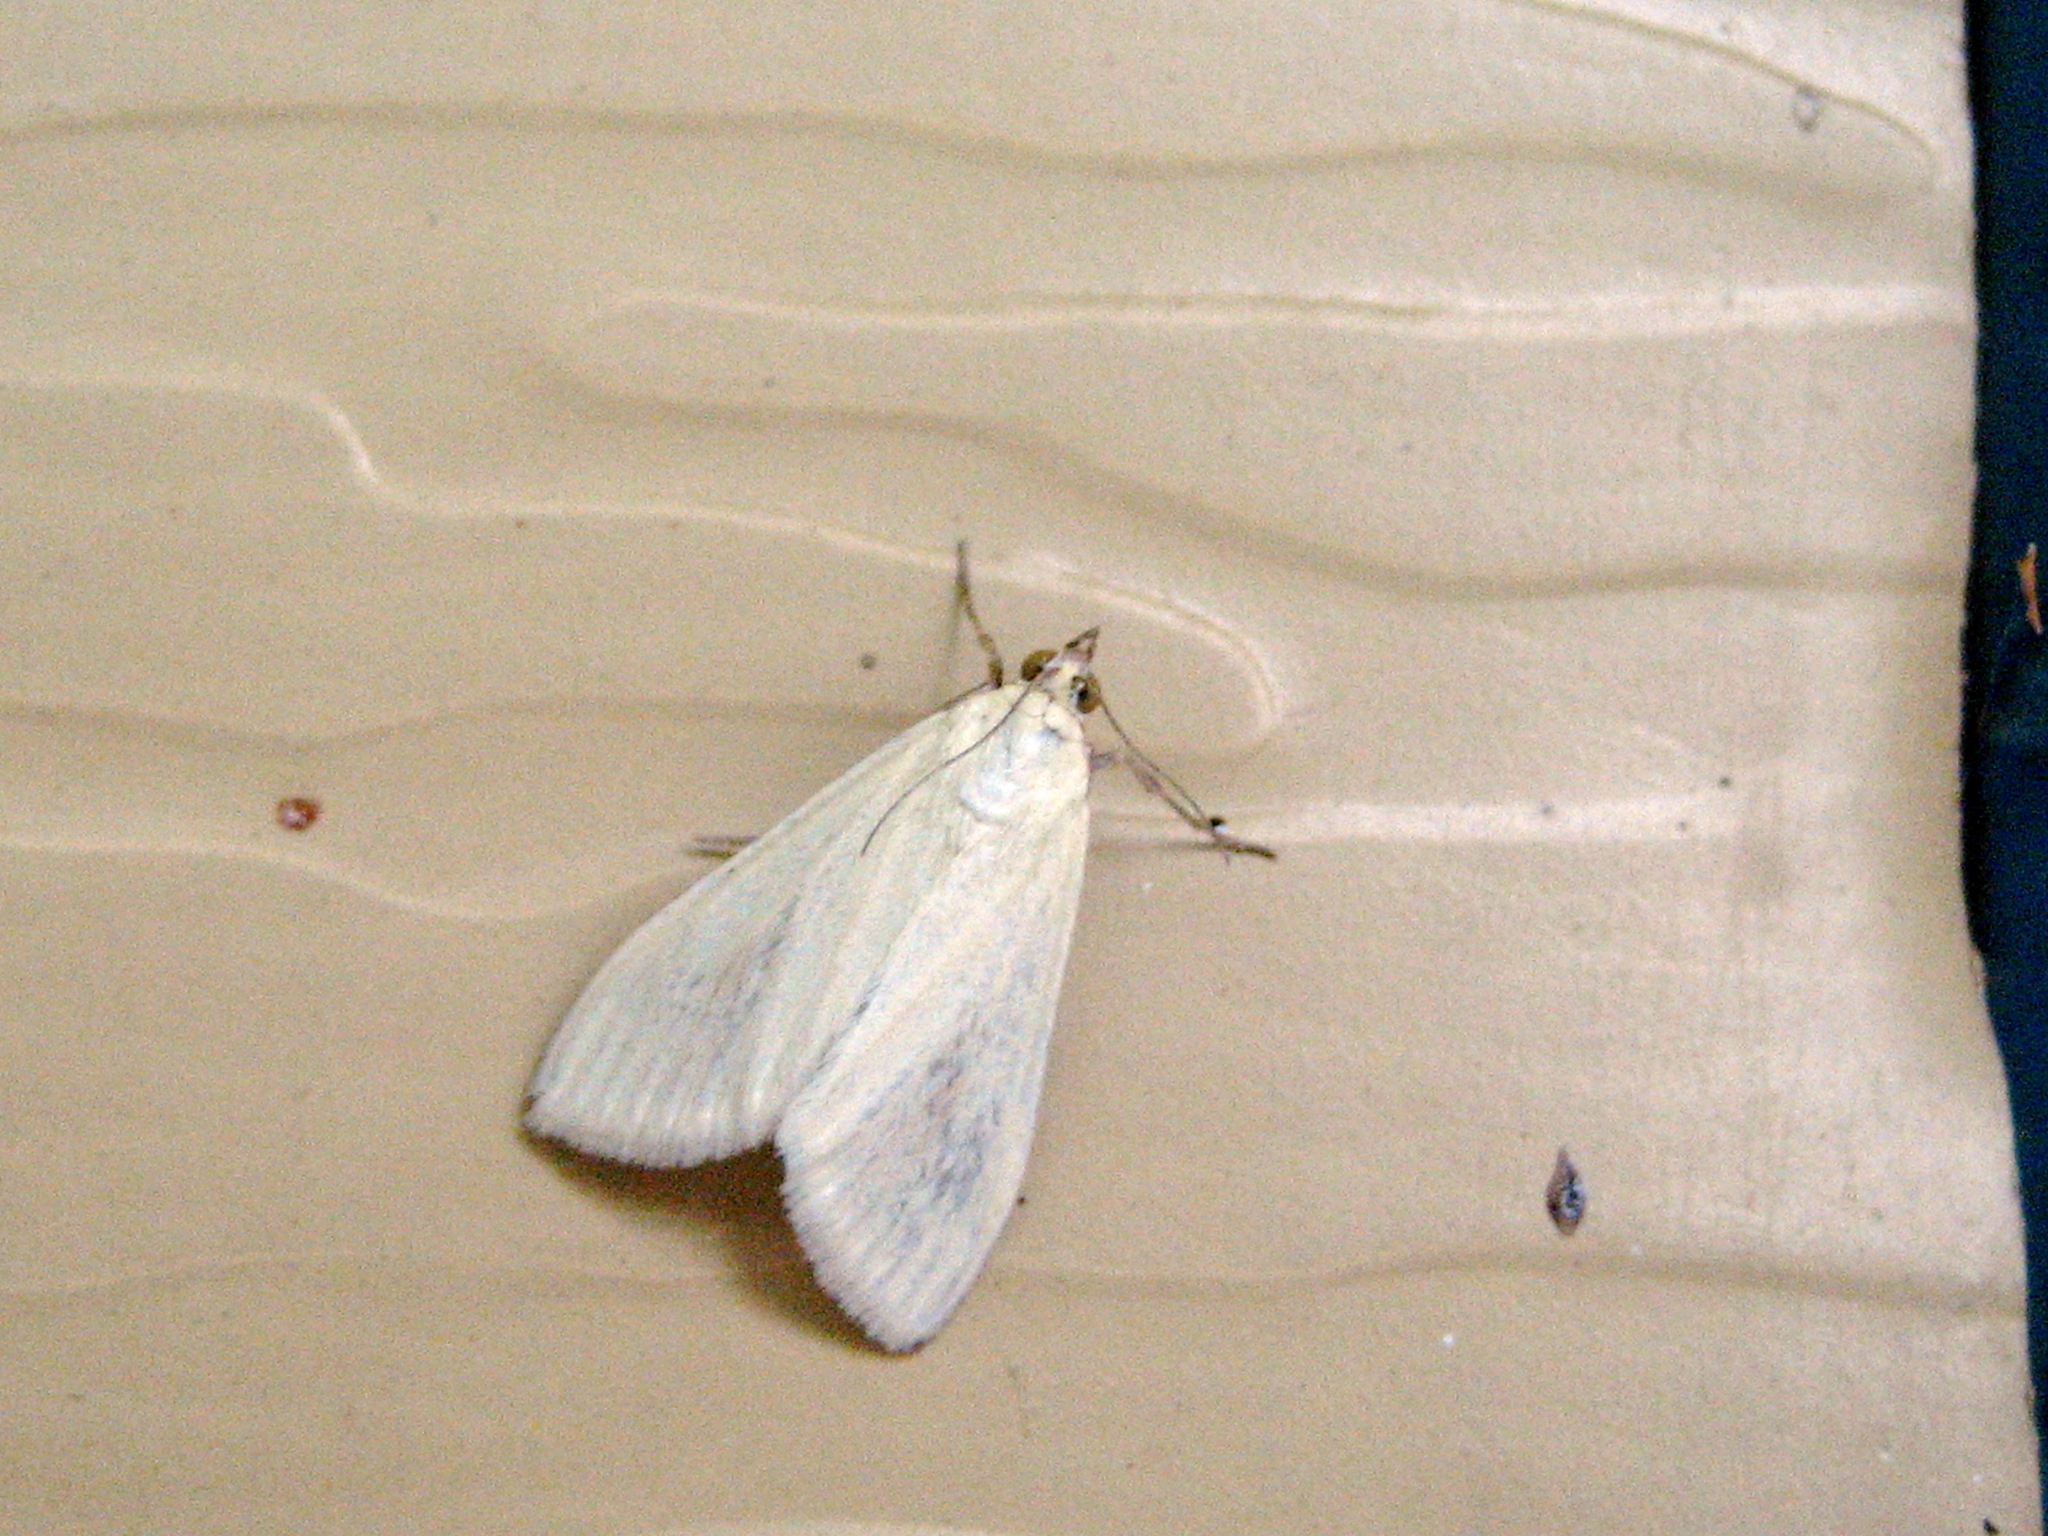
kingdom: Animalia
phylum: Arthropoda
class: Insecta
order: Lepidoptera
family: Crambidae
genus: Sitochroa
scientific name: Sitochroa palealis
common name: Greenish-yellow sitochroa moth
